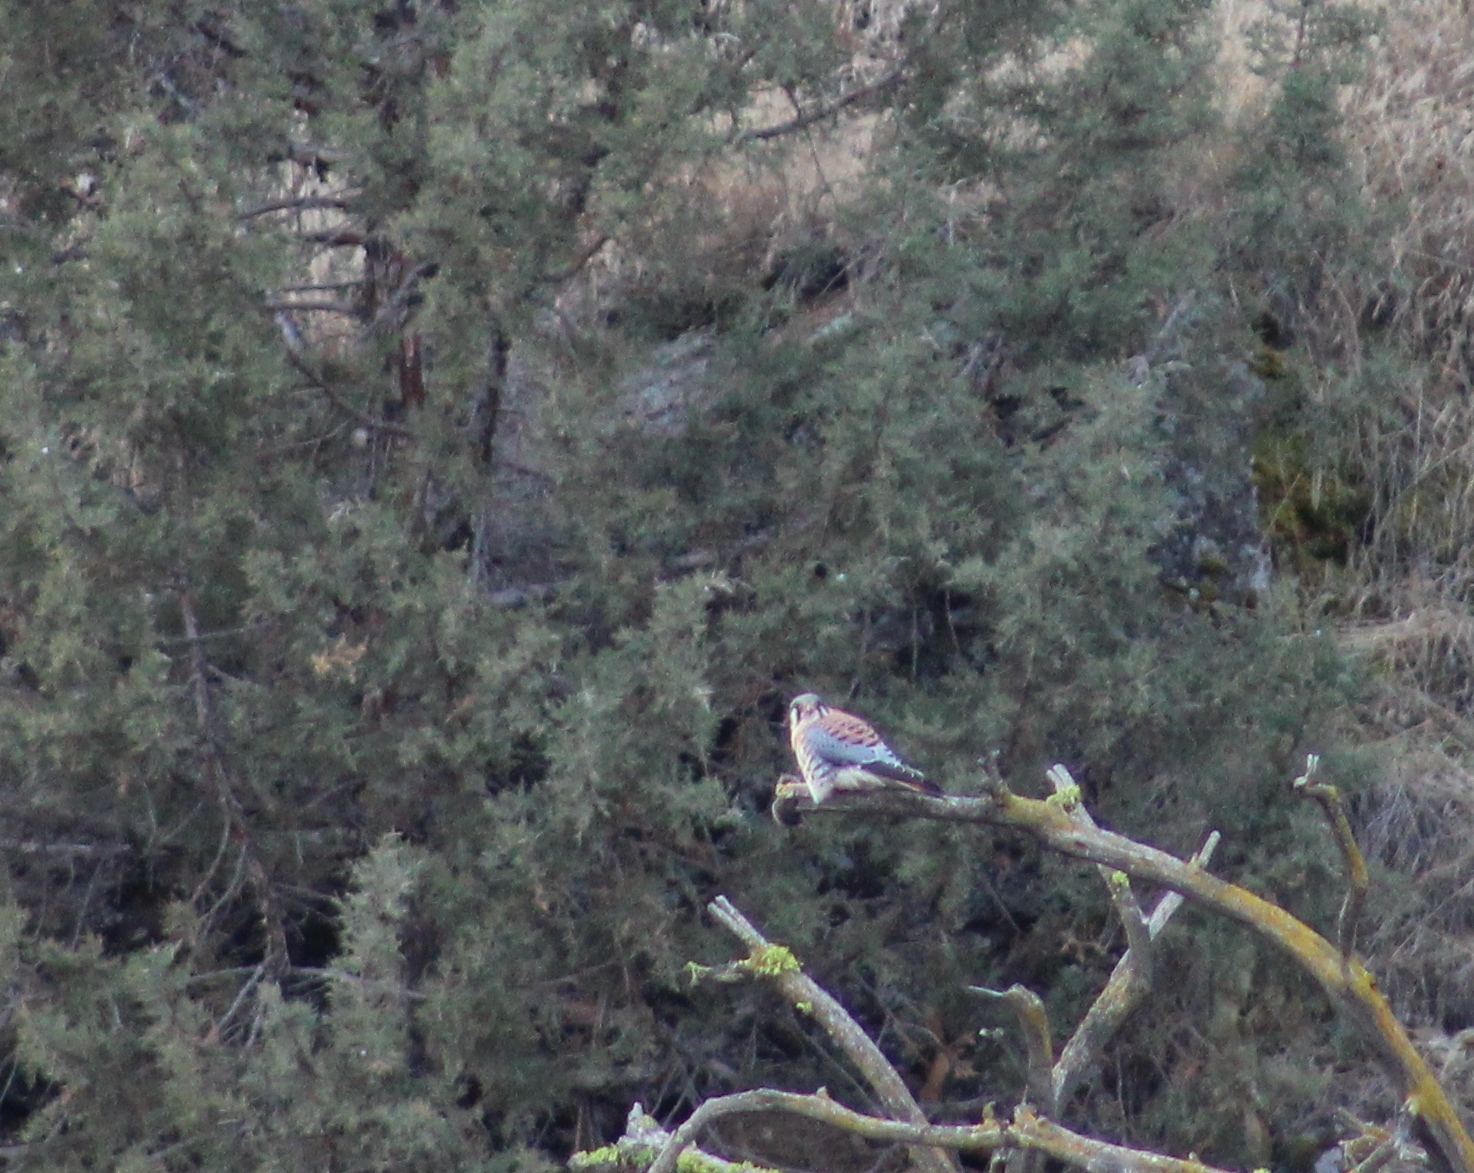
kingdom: Animalia
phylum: Chordata
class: Aves
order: Falconiformes
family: Falconidae
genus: Falco
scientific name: Falco sparverius
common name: American kestrel
